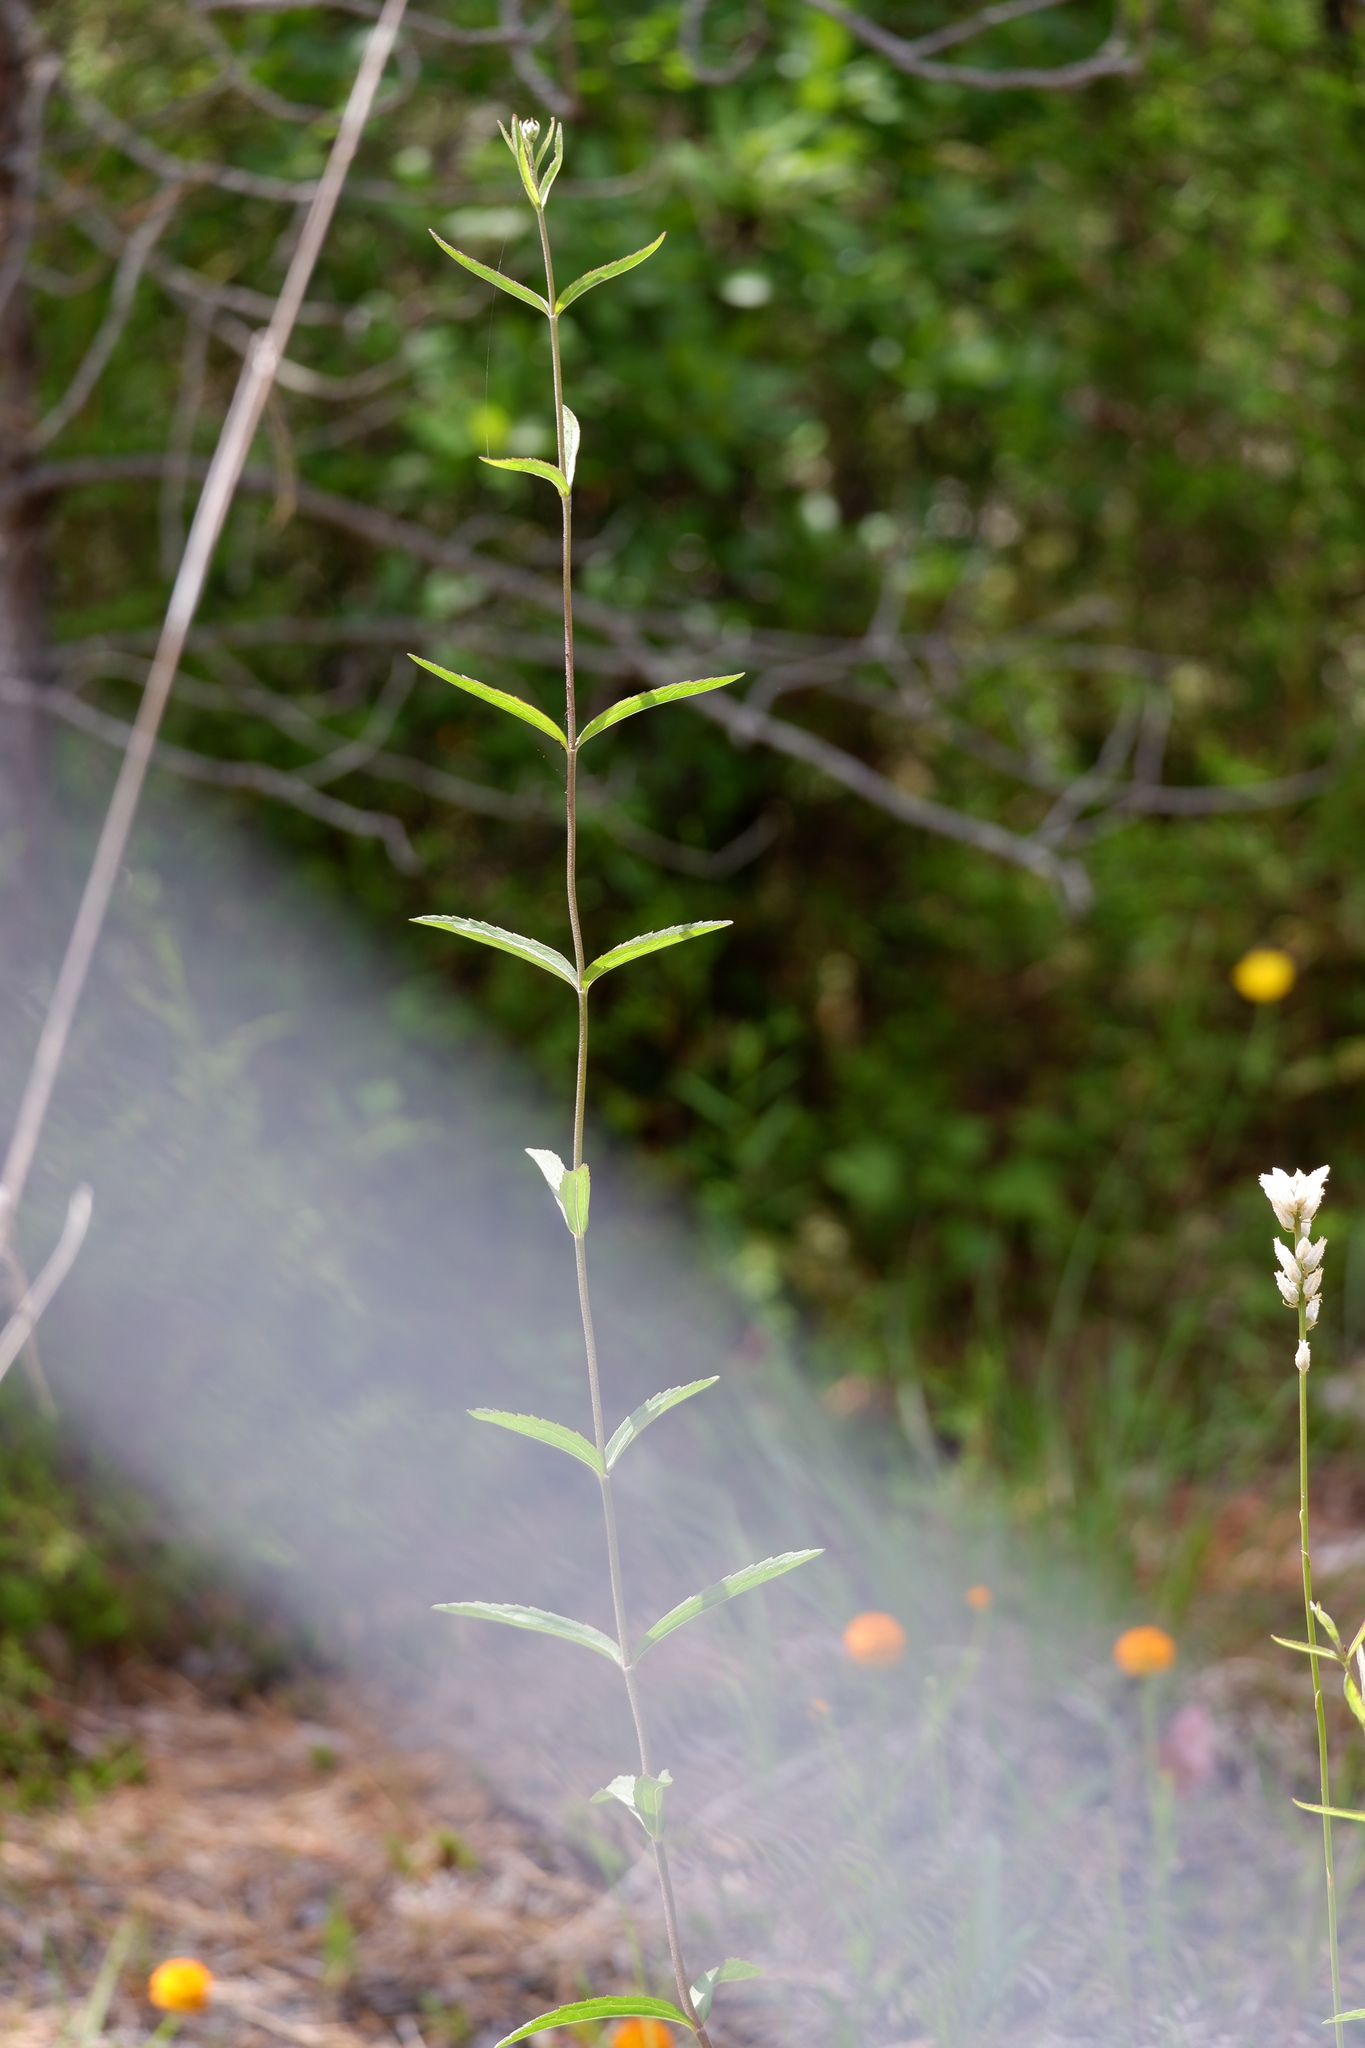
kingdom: Plantae
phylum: Tracheophyta
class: Magnoliopsida
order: Asterales
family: Asteraceae
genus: Eupatorium
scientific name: Eupatorium leucolepis
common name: Justiceweed
